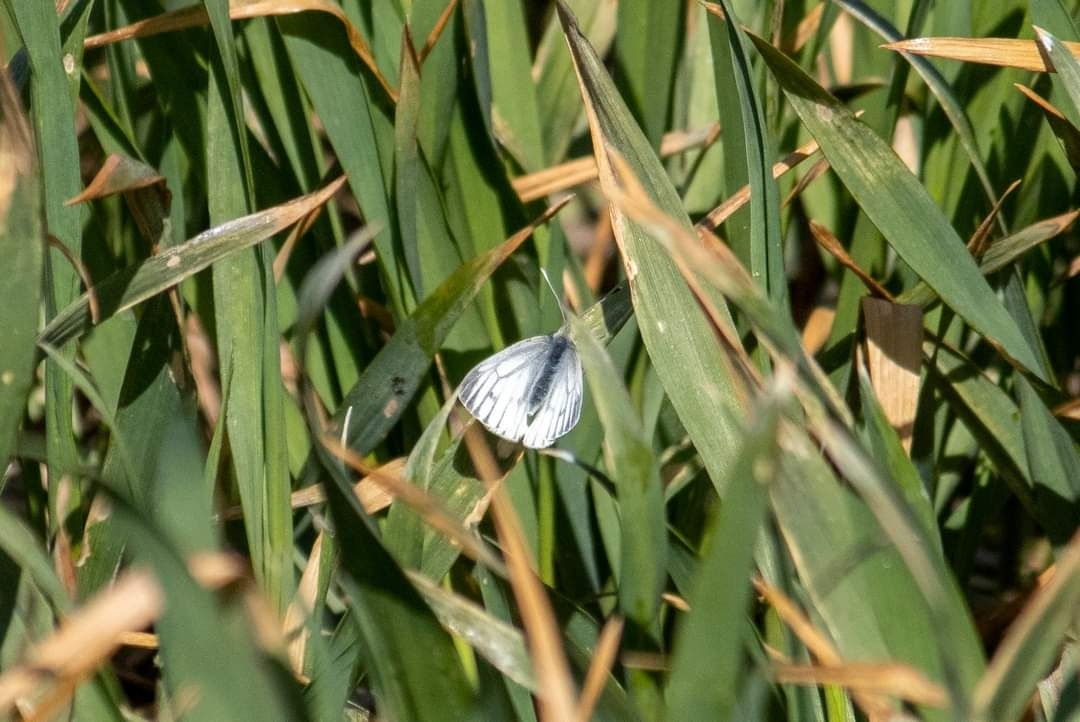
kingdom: Animalia
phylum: Arthropoda
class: Insecta
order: Lepidoptera
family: Pieridae
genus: Pieris
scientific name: Pieris napi
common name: Green-veined white
